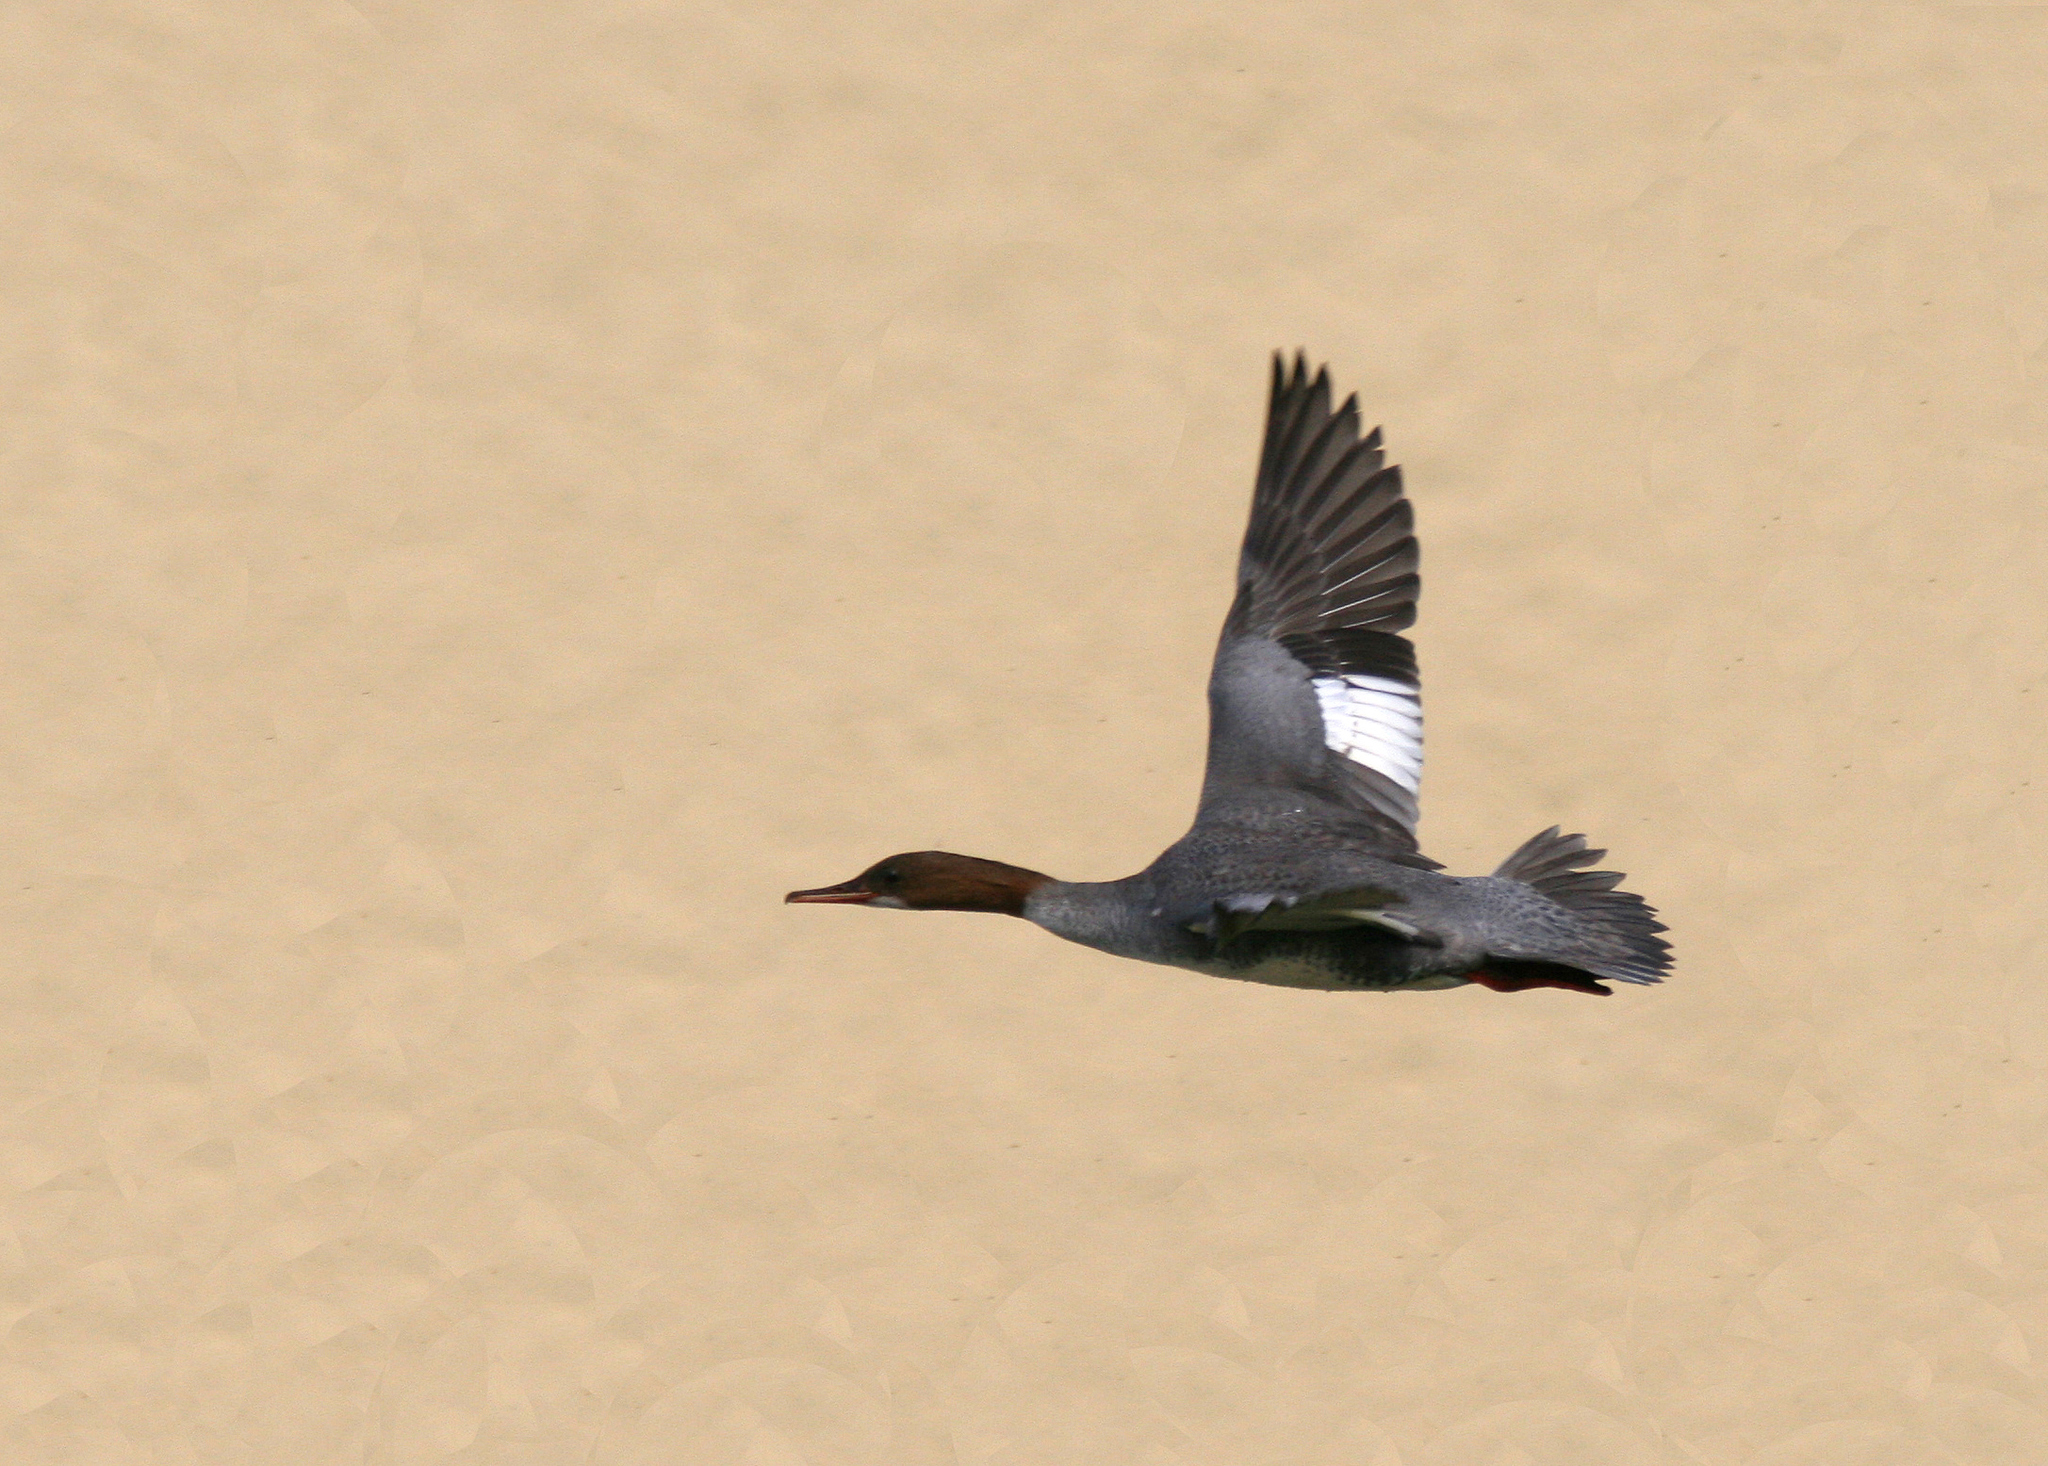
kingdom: Animalia
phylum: Chordata
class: Aves
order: Anseriformes
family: Anatidae
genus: Mergus
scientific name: Mergus merganser
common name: Common merganser
